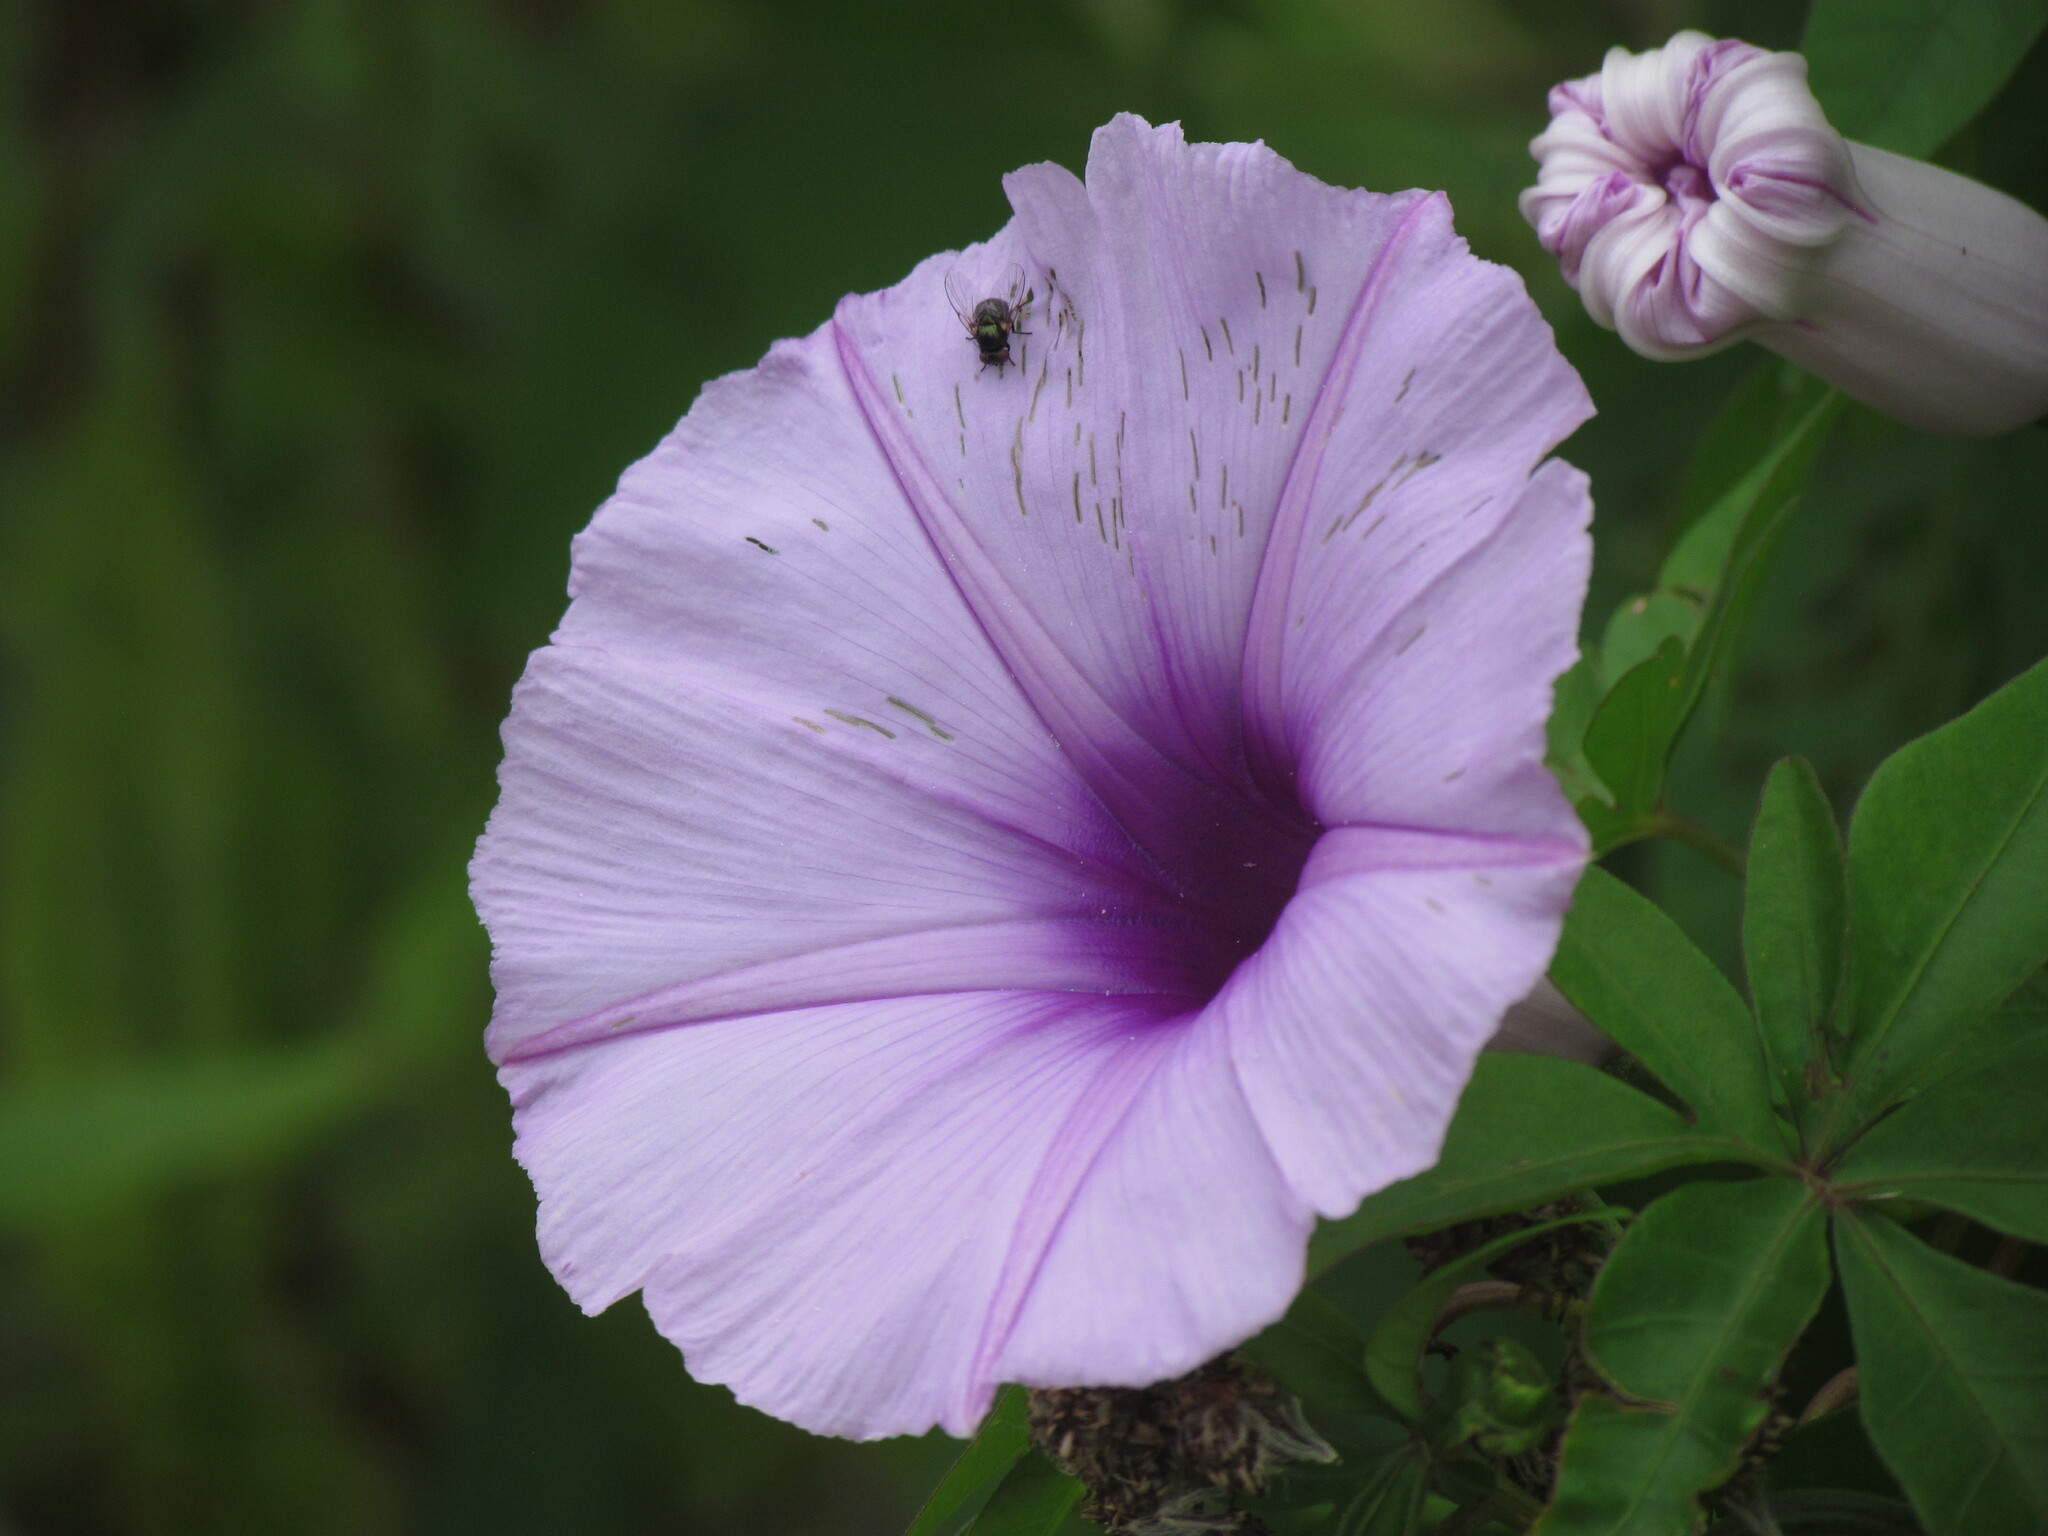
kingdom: Plantae
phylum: Tracheophyta
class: Magnoliopsida
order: Solanales
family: Convolvulaceae
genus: Ipomoea
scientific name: Ipomoea cairica
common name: Mile a minute vine
